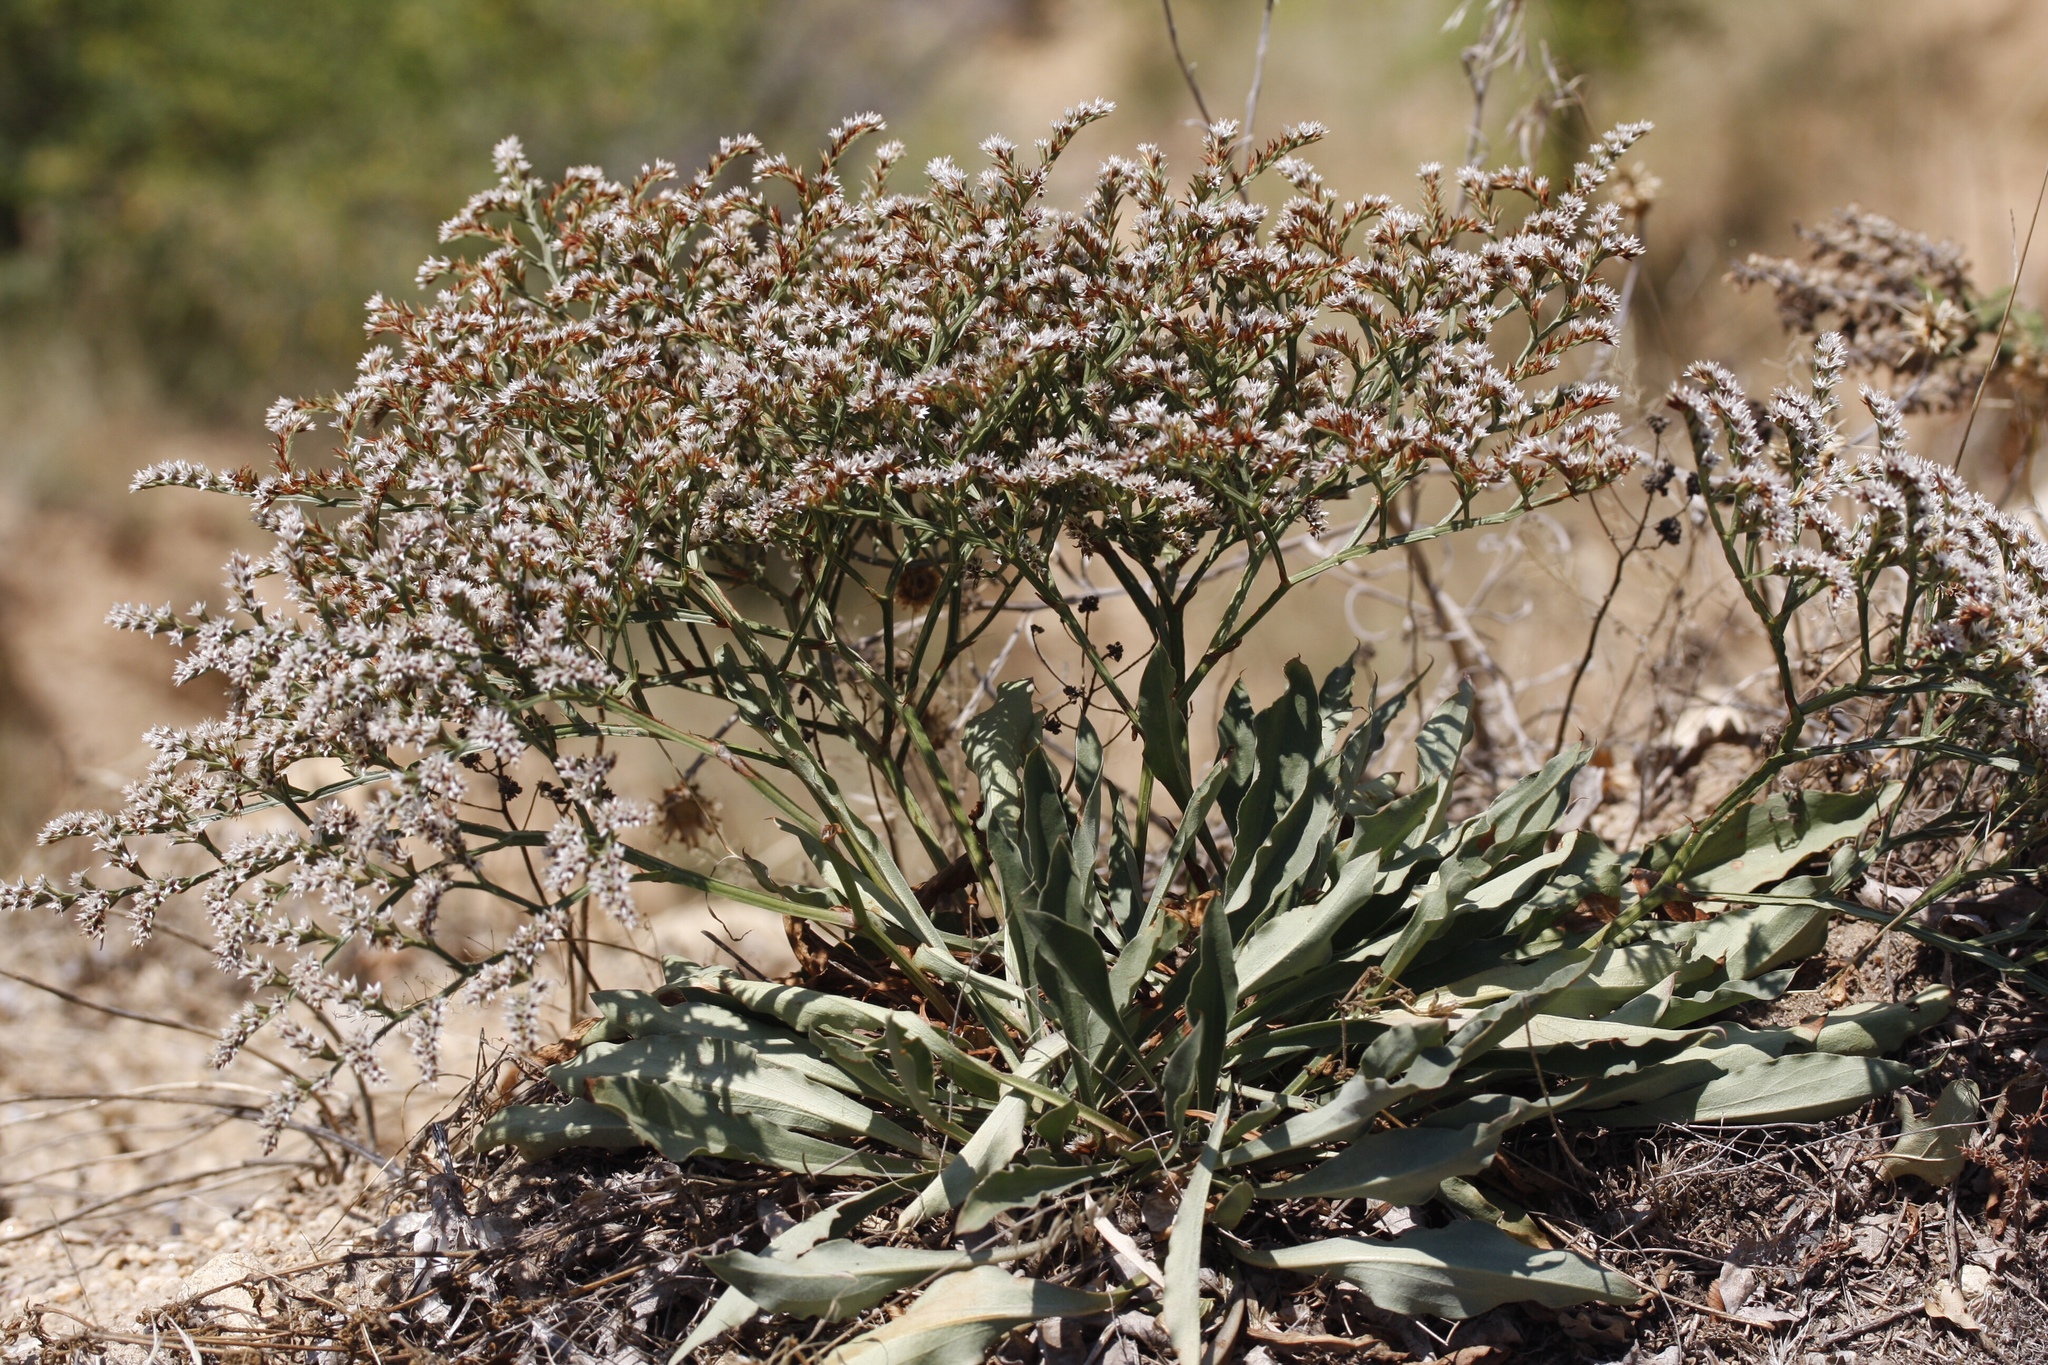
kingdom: Plantae
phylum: Tracheophyta
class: Magnoliopsida
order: Caryophyllales
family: Plumbaginaceae
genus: Goniolimon
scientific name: Goniolimon tataricum
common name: Statice
